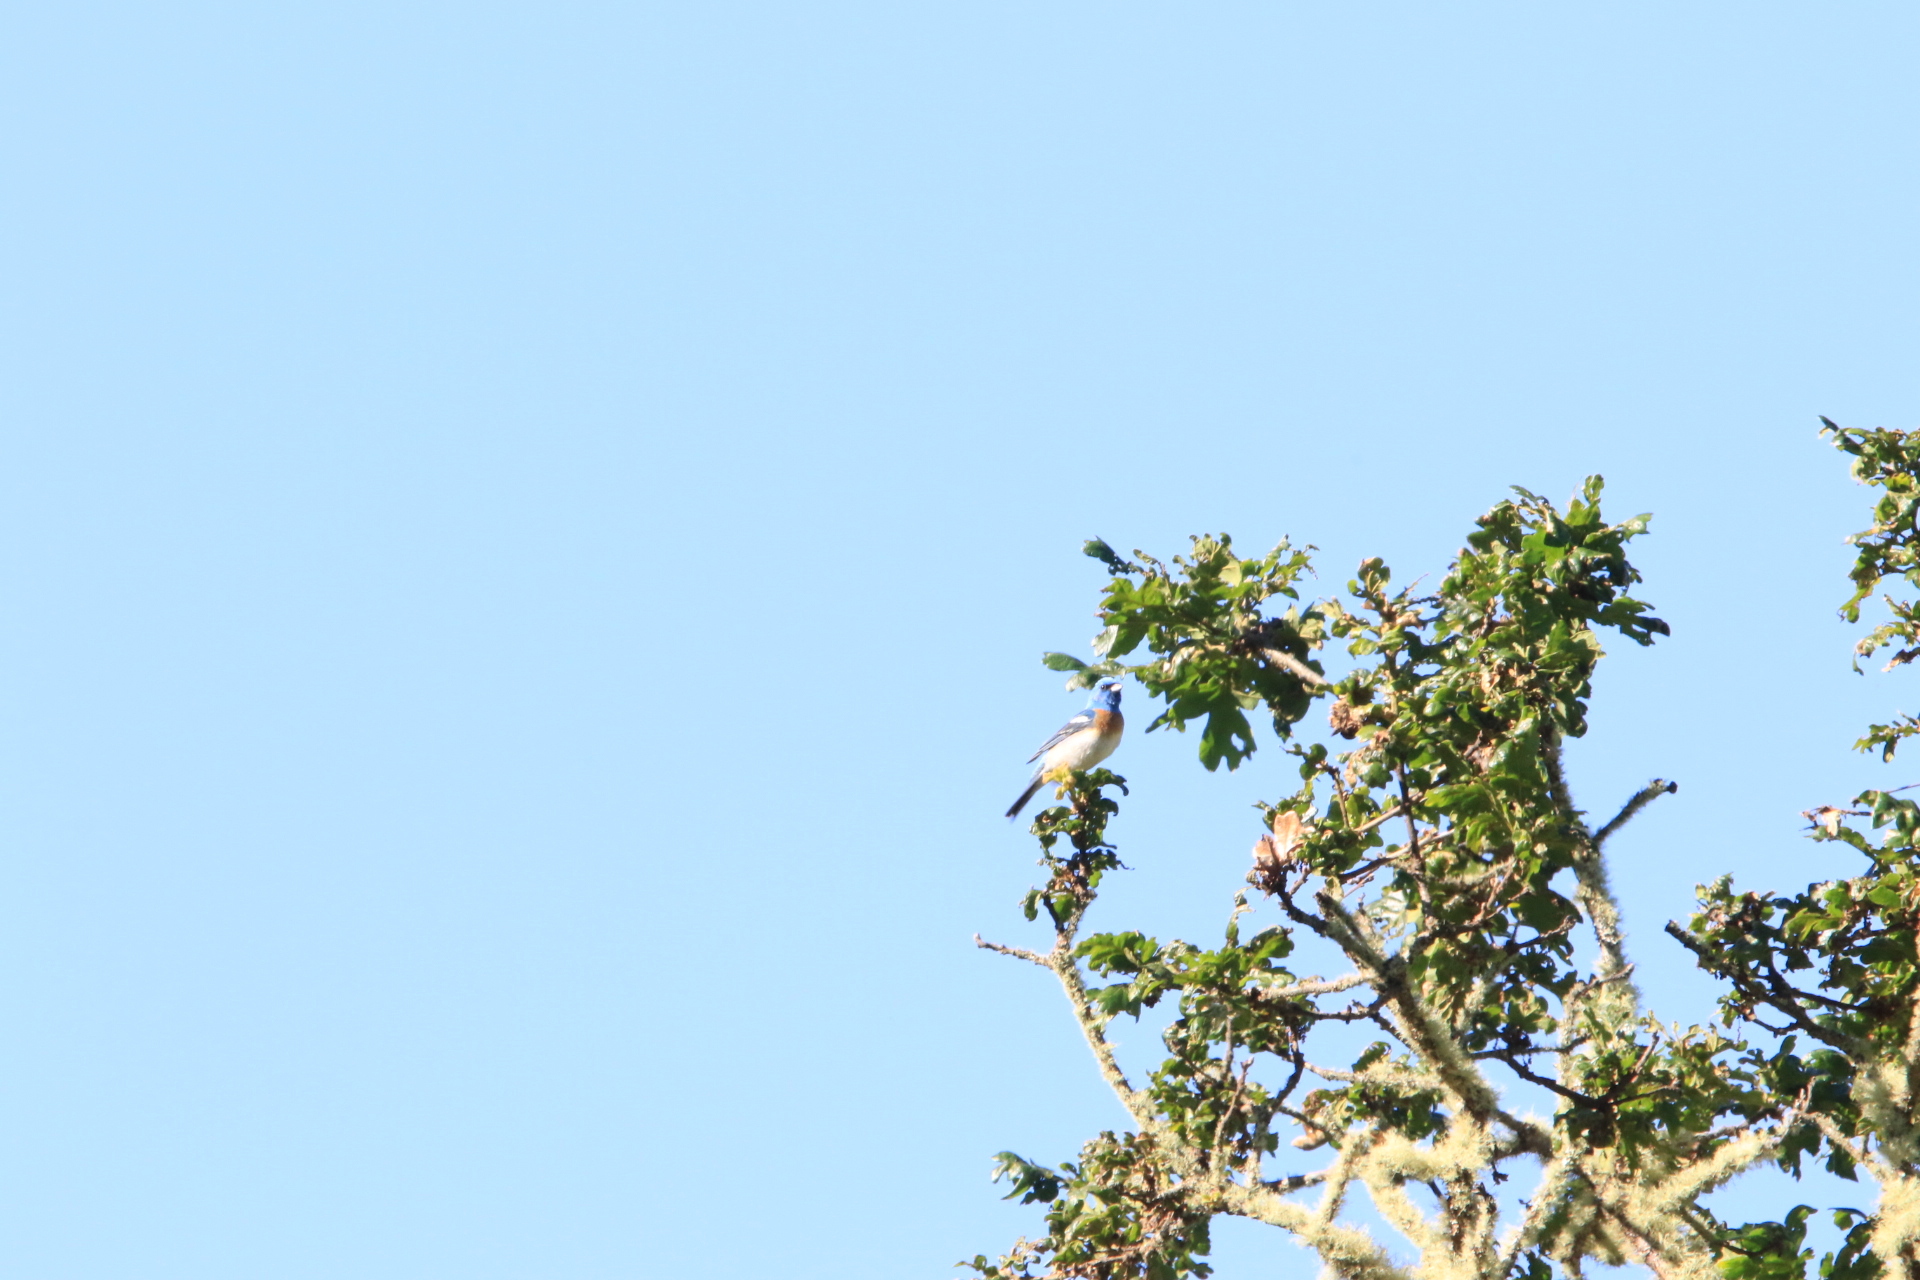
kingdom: Animalia
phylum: Chordata
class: Aves
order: Passeriformes
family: Cardinalidae
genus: Passerina
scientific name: Passerina amoena
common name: Lazuli bunting
